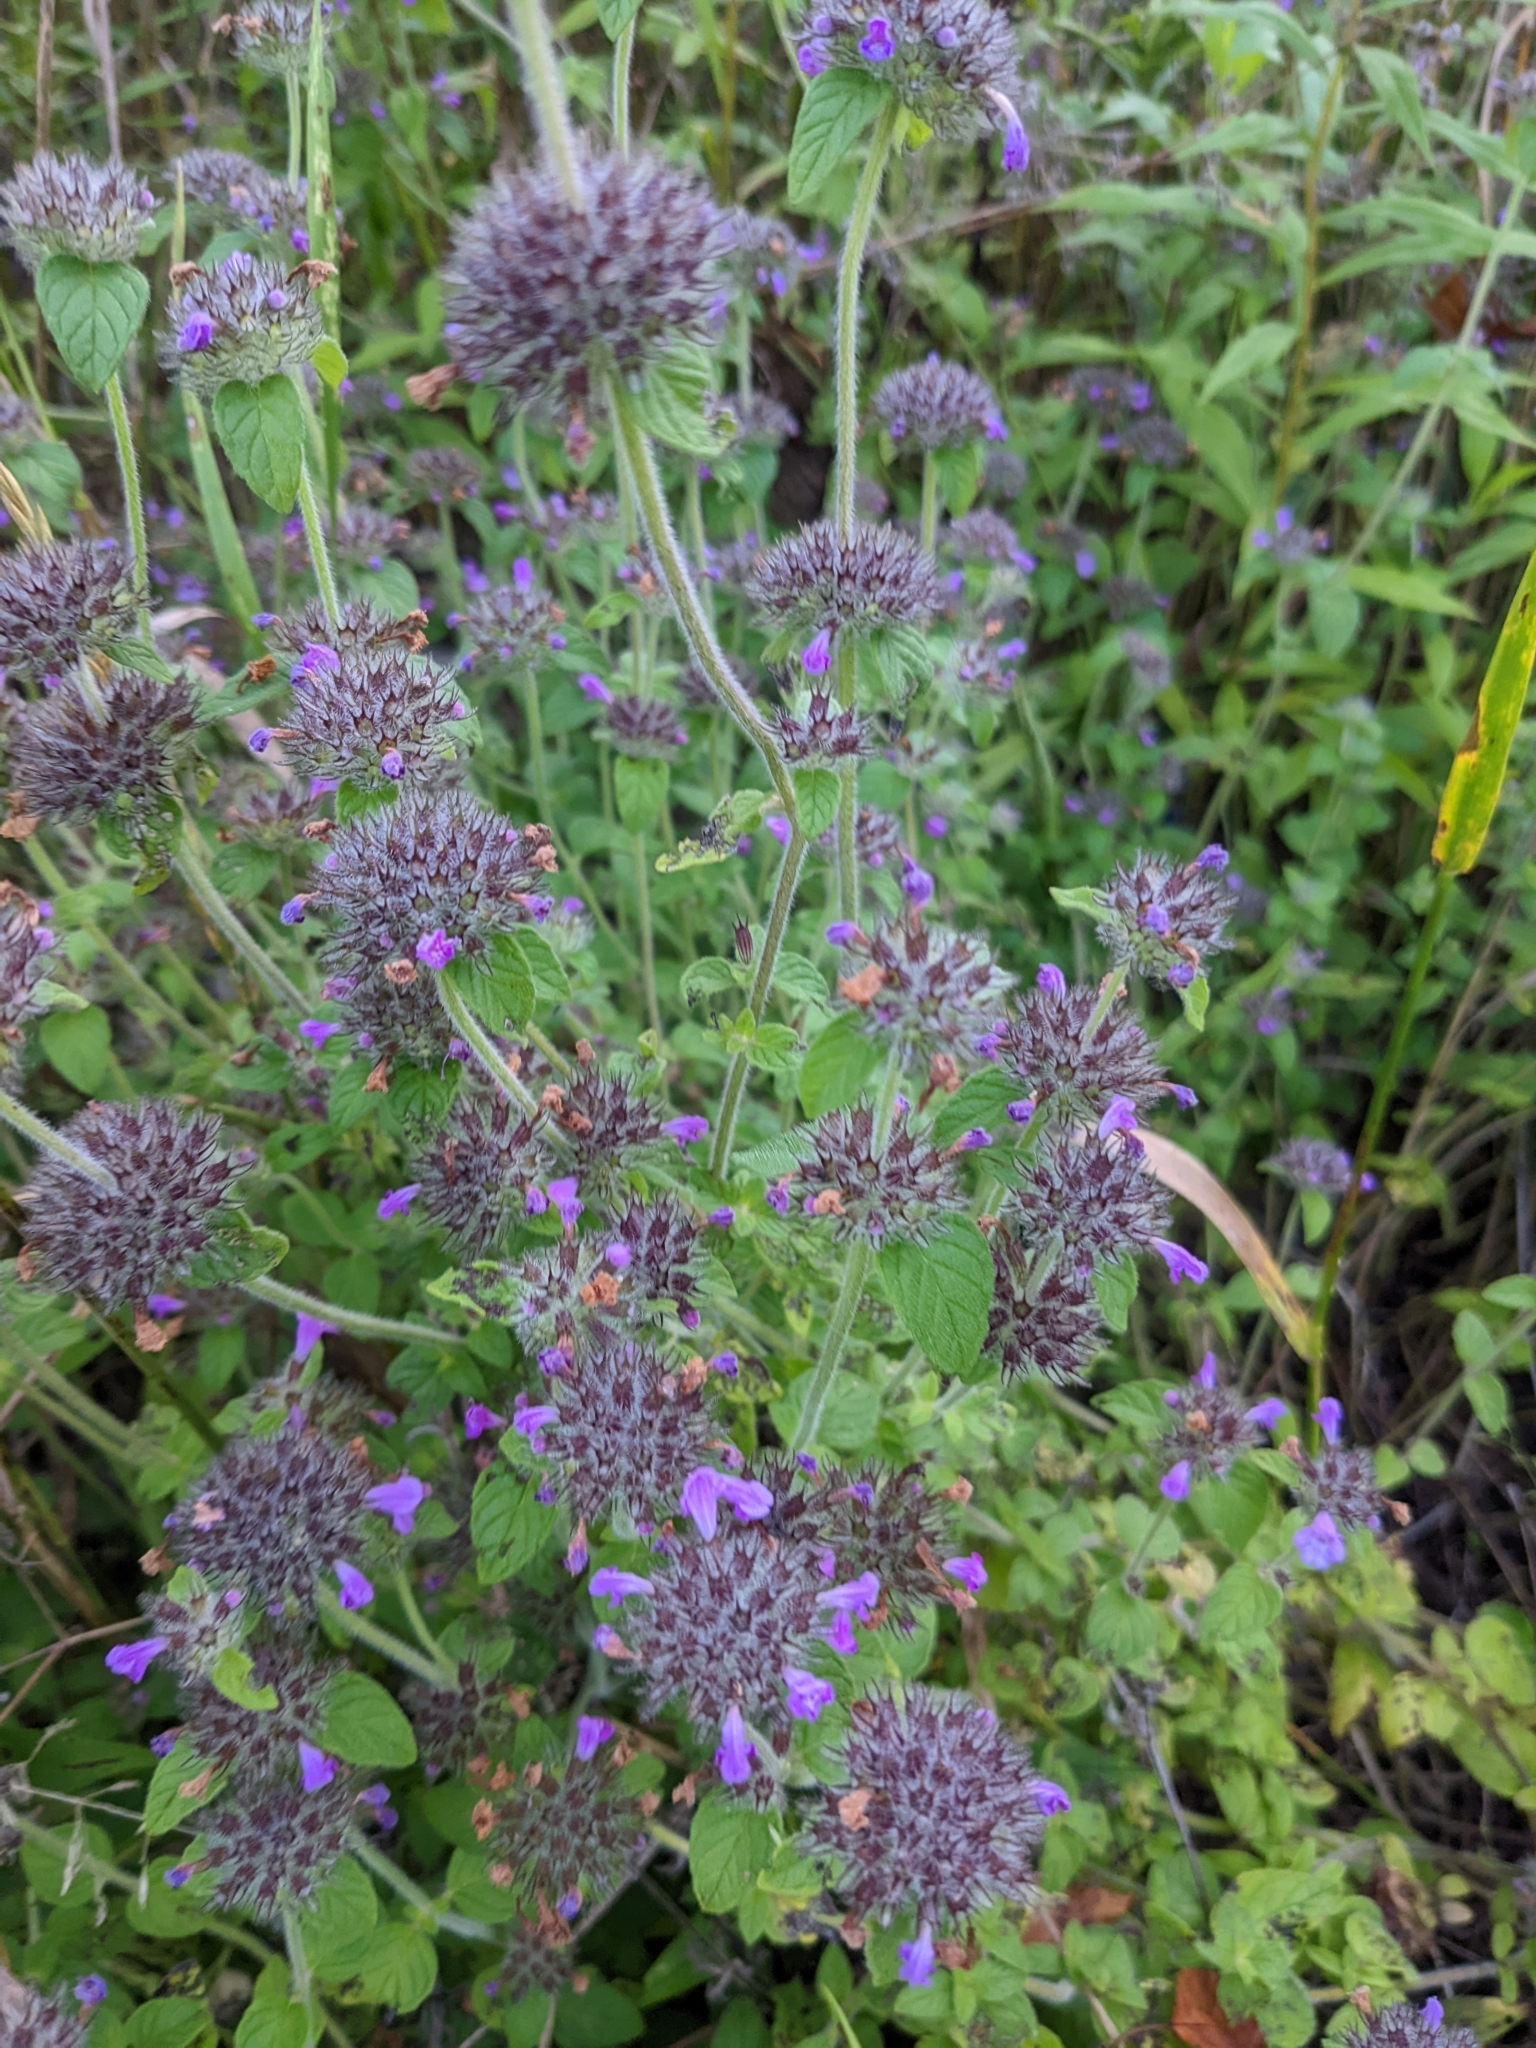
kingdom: Plantae
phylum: Tracheophyta
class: Magnoliopsida
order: Lamiales
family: Lamiaceae
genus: Clinopodium
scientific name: Clinopodium vulgare
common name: Wild basil
